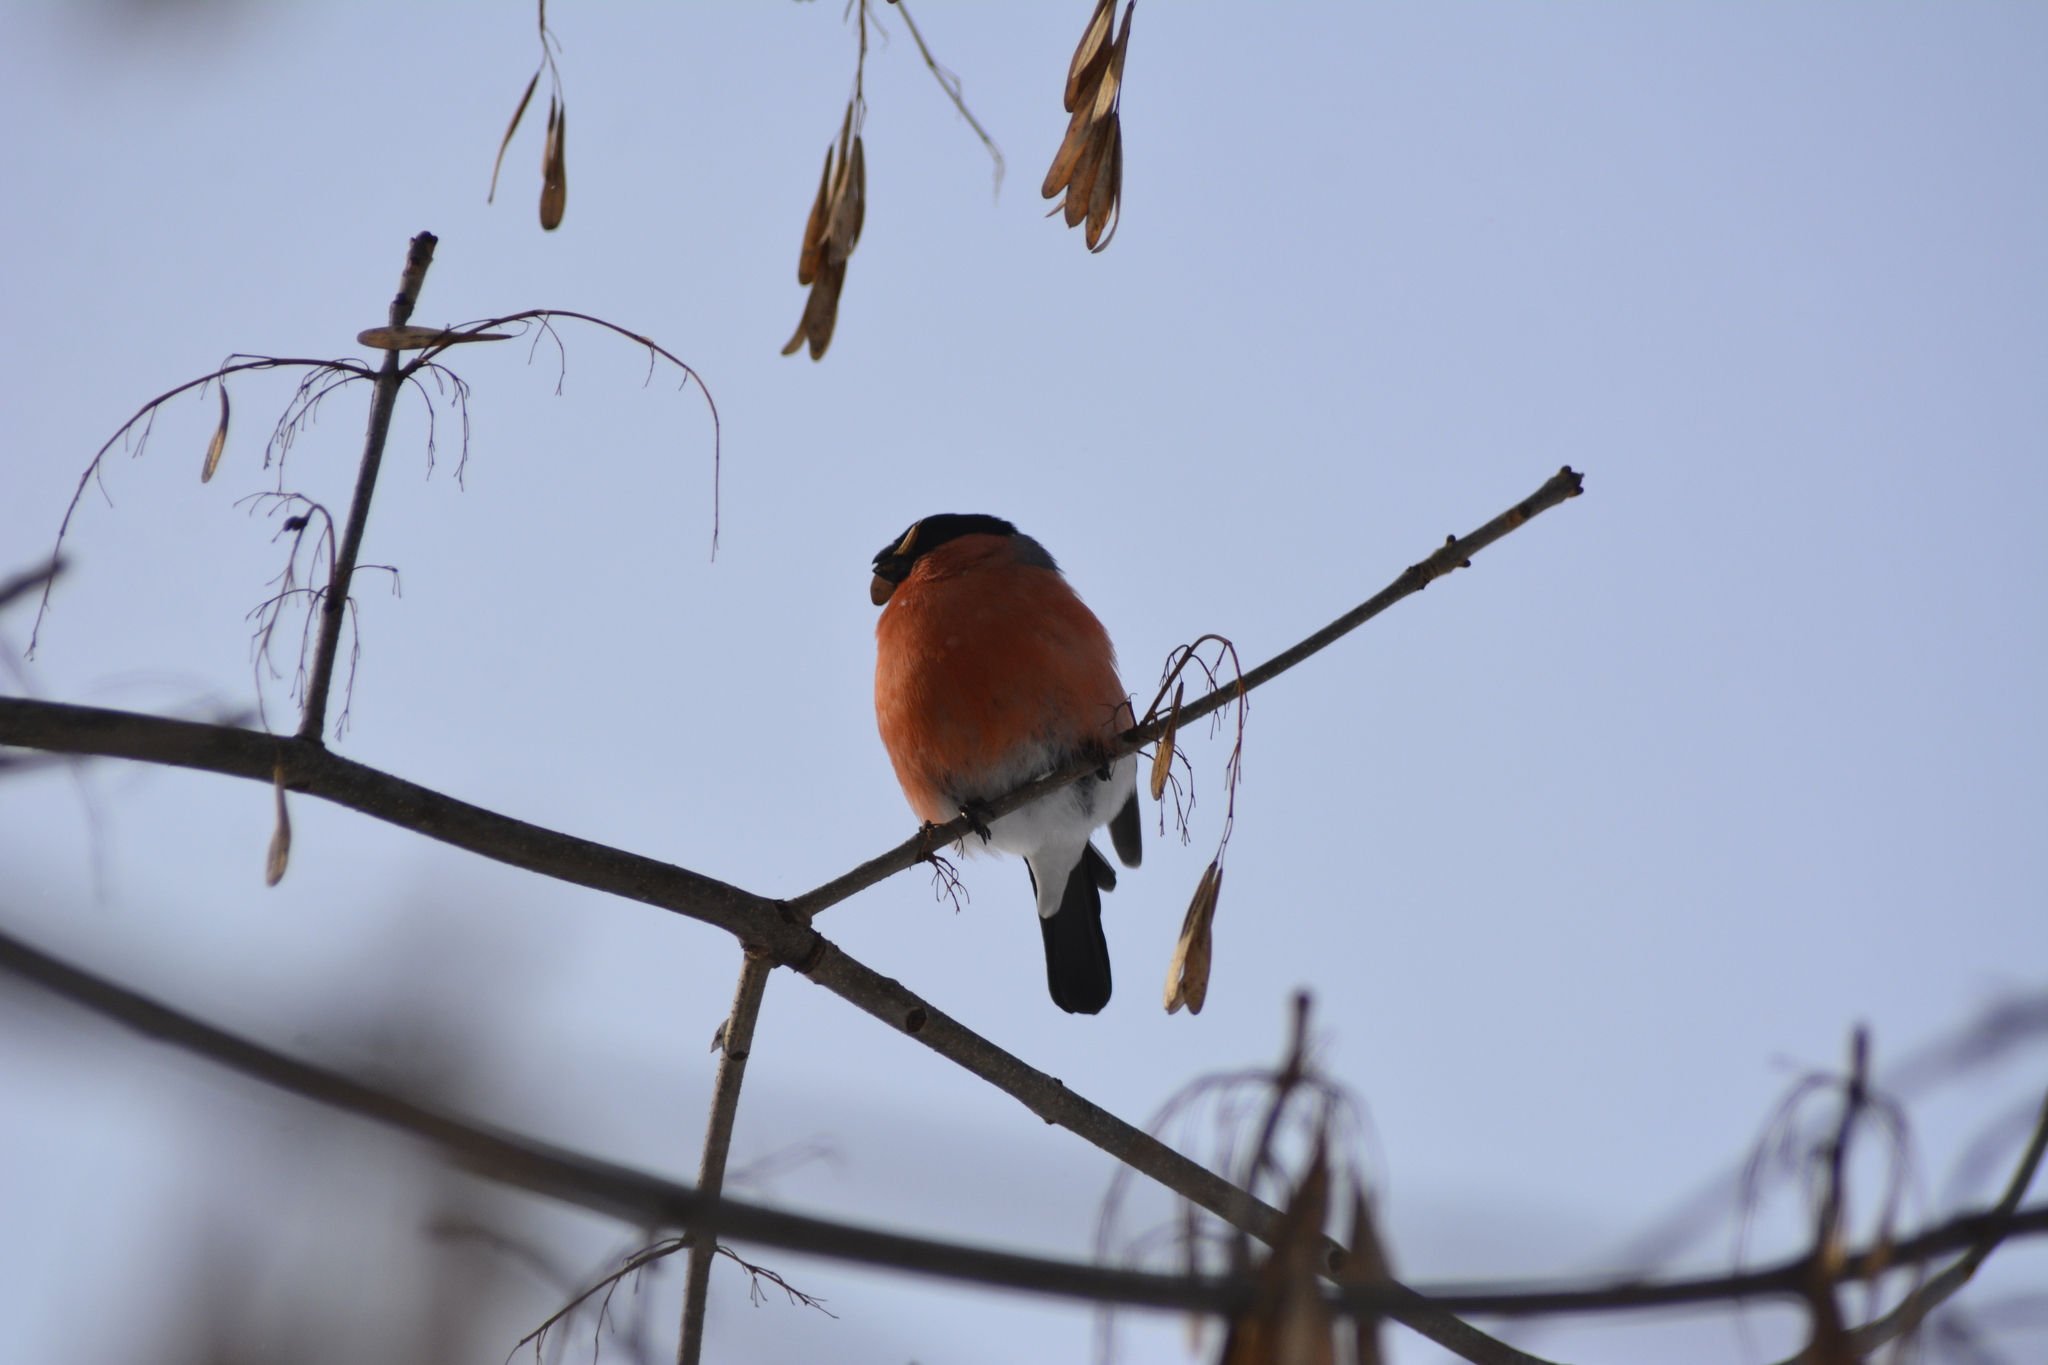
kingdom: Animalia
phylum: Chordata
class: Aves
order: Passeriformes
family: Fringillidae
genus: Pyrrhula
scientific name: Pyrrhula pyrrhula
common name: Eurasian bullfinch
